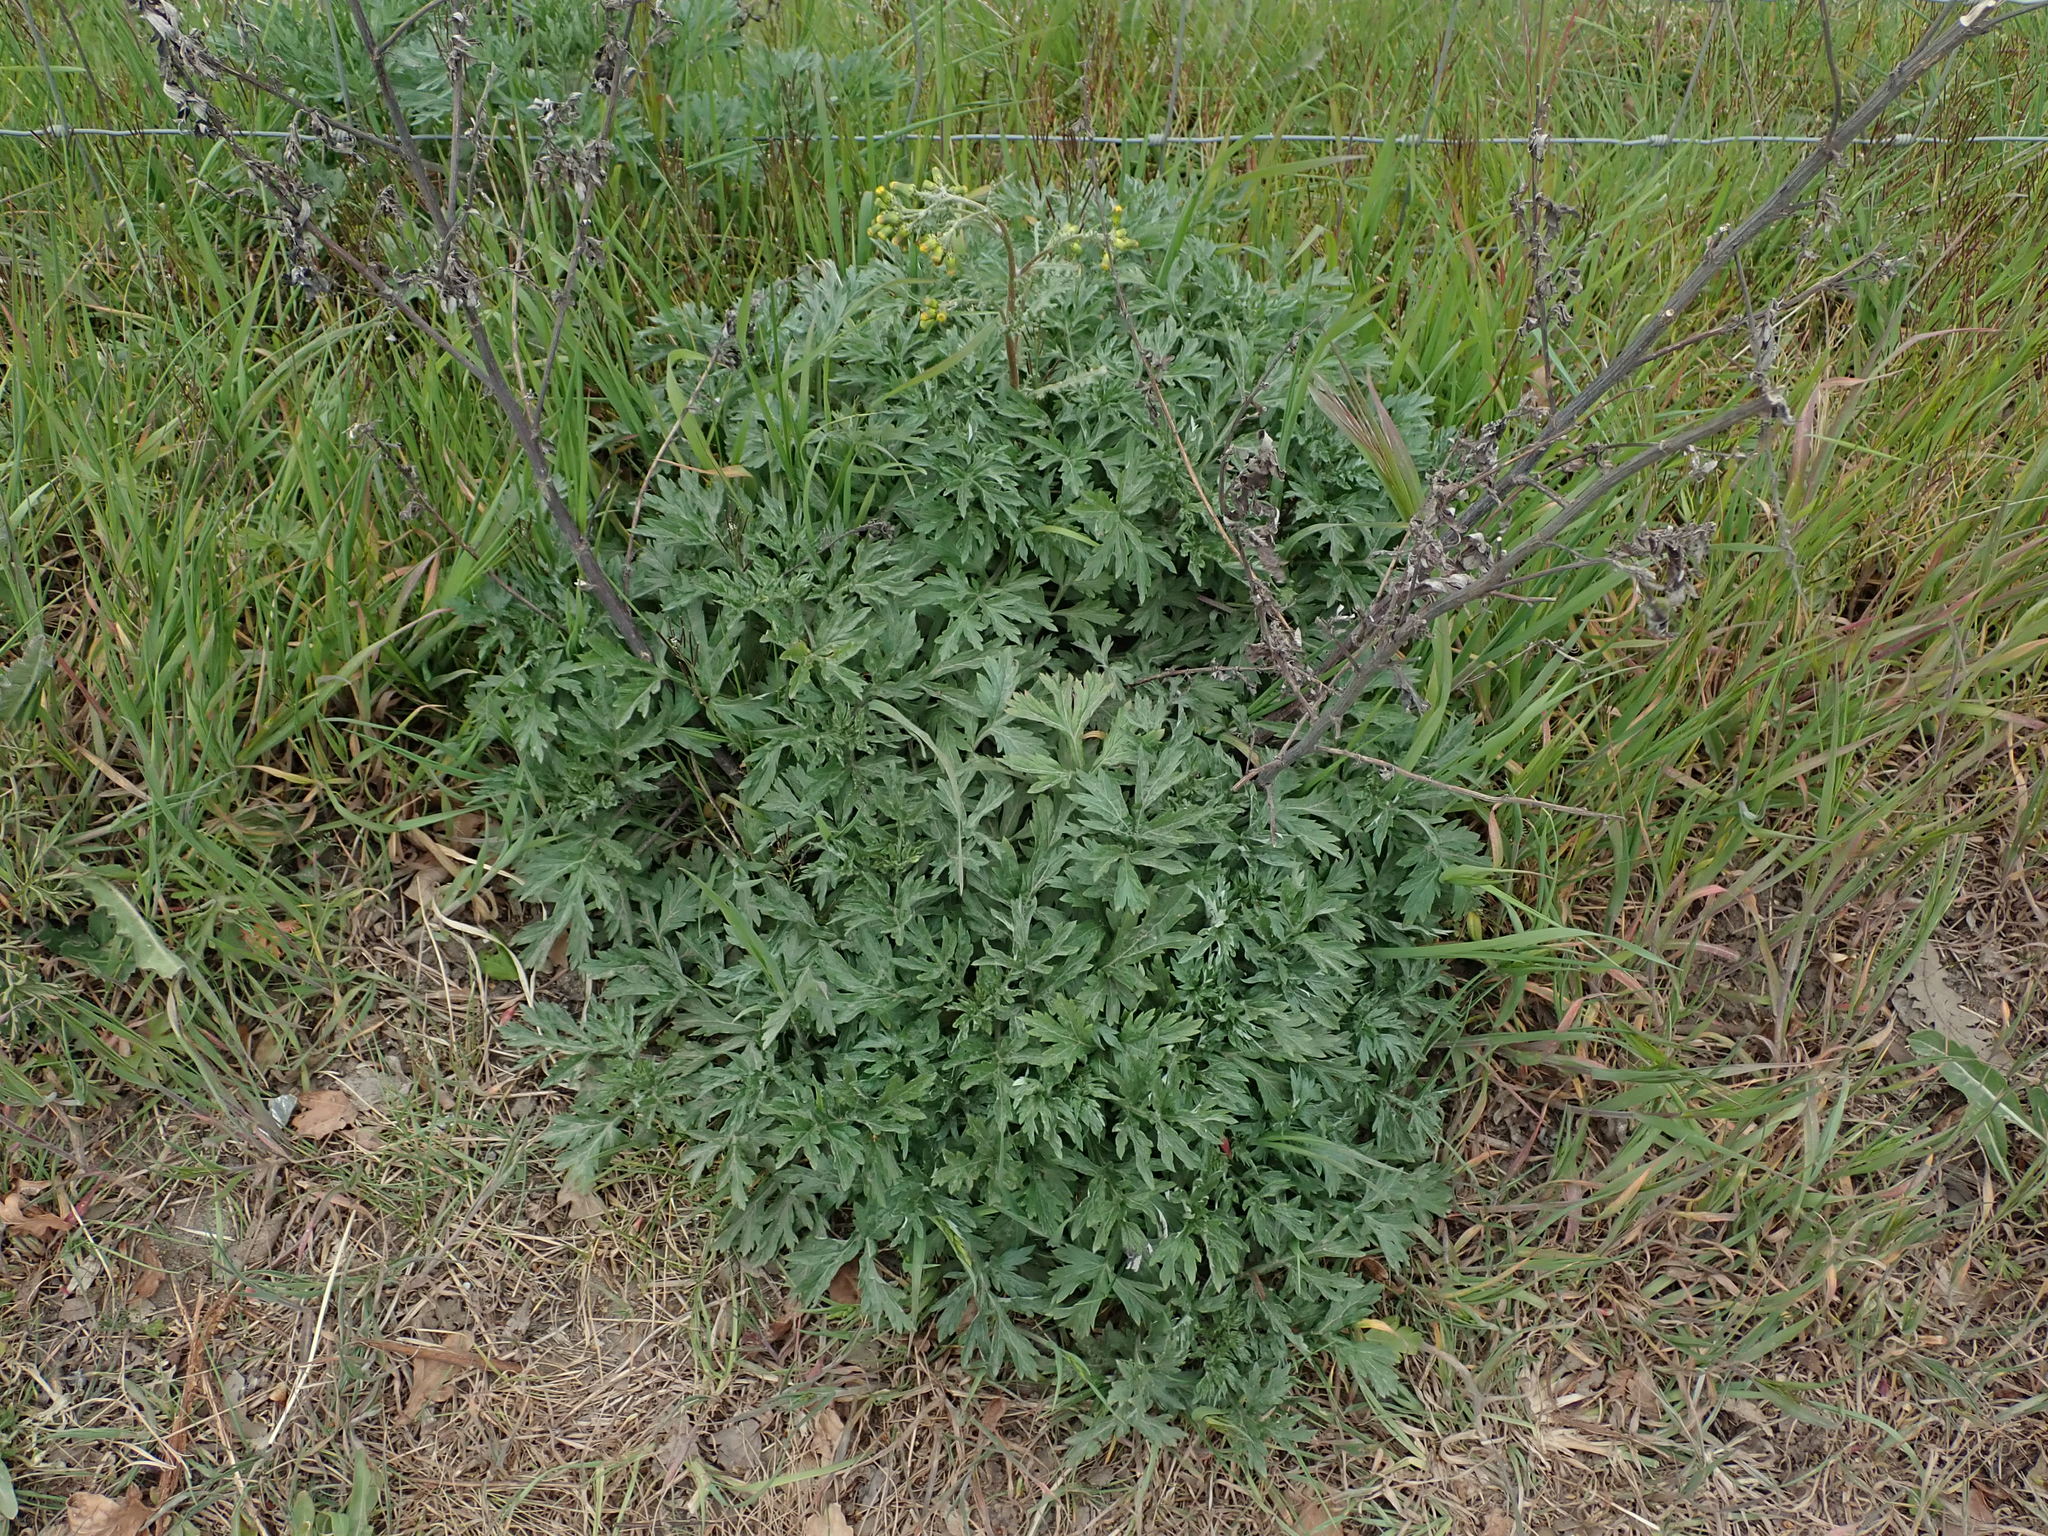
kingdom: Plantae
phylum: Tracheophyta
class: Magnoliopsida
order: Asterales
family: Asteraceae
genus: Artemisia
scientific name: Artemisia vulgaris
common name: Mugwort
